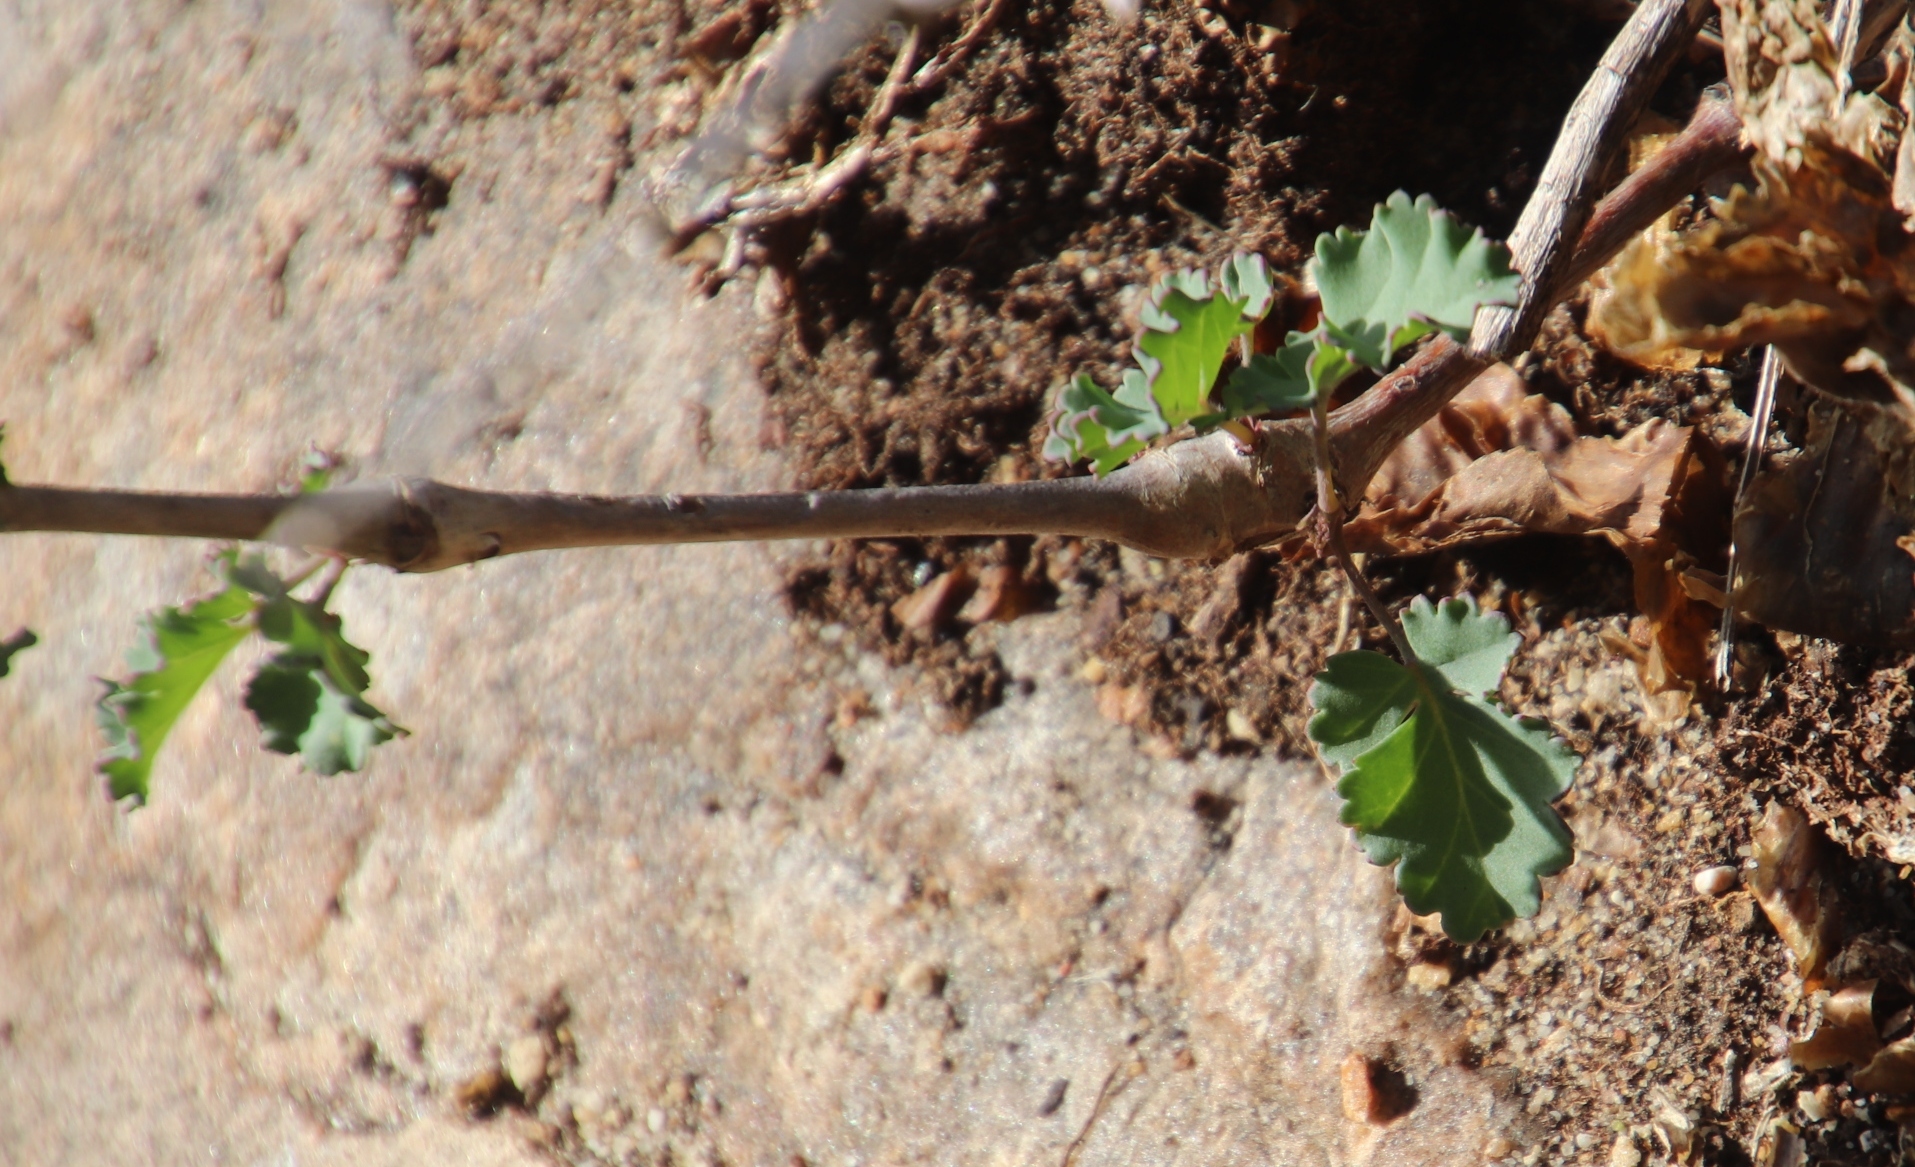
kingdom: Plantae
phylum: Tracheophyta
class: Magnoliopsida
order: Geraniales
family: Geraniaceae
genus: Pelargonium
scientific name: Pelargonium gibbosum
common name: Gouty geranium
